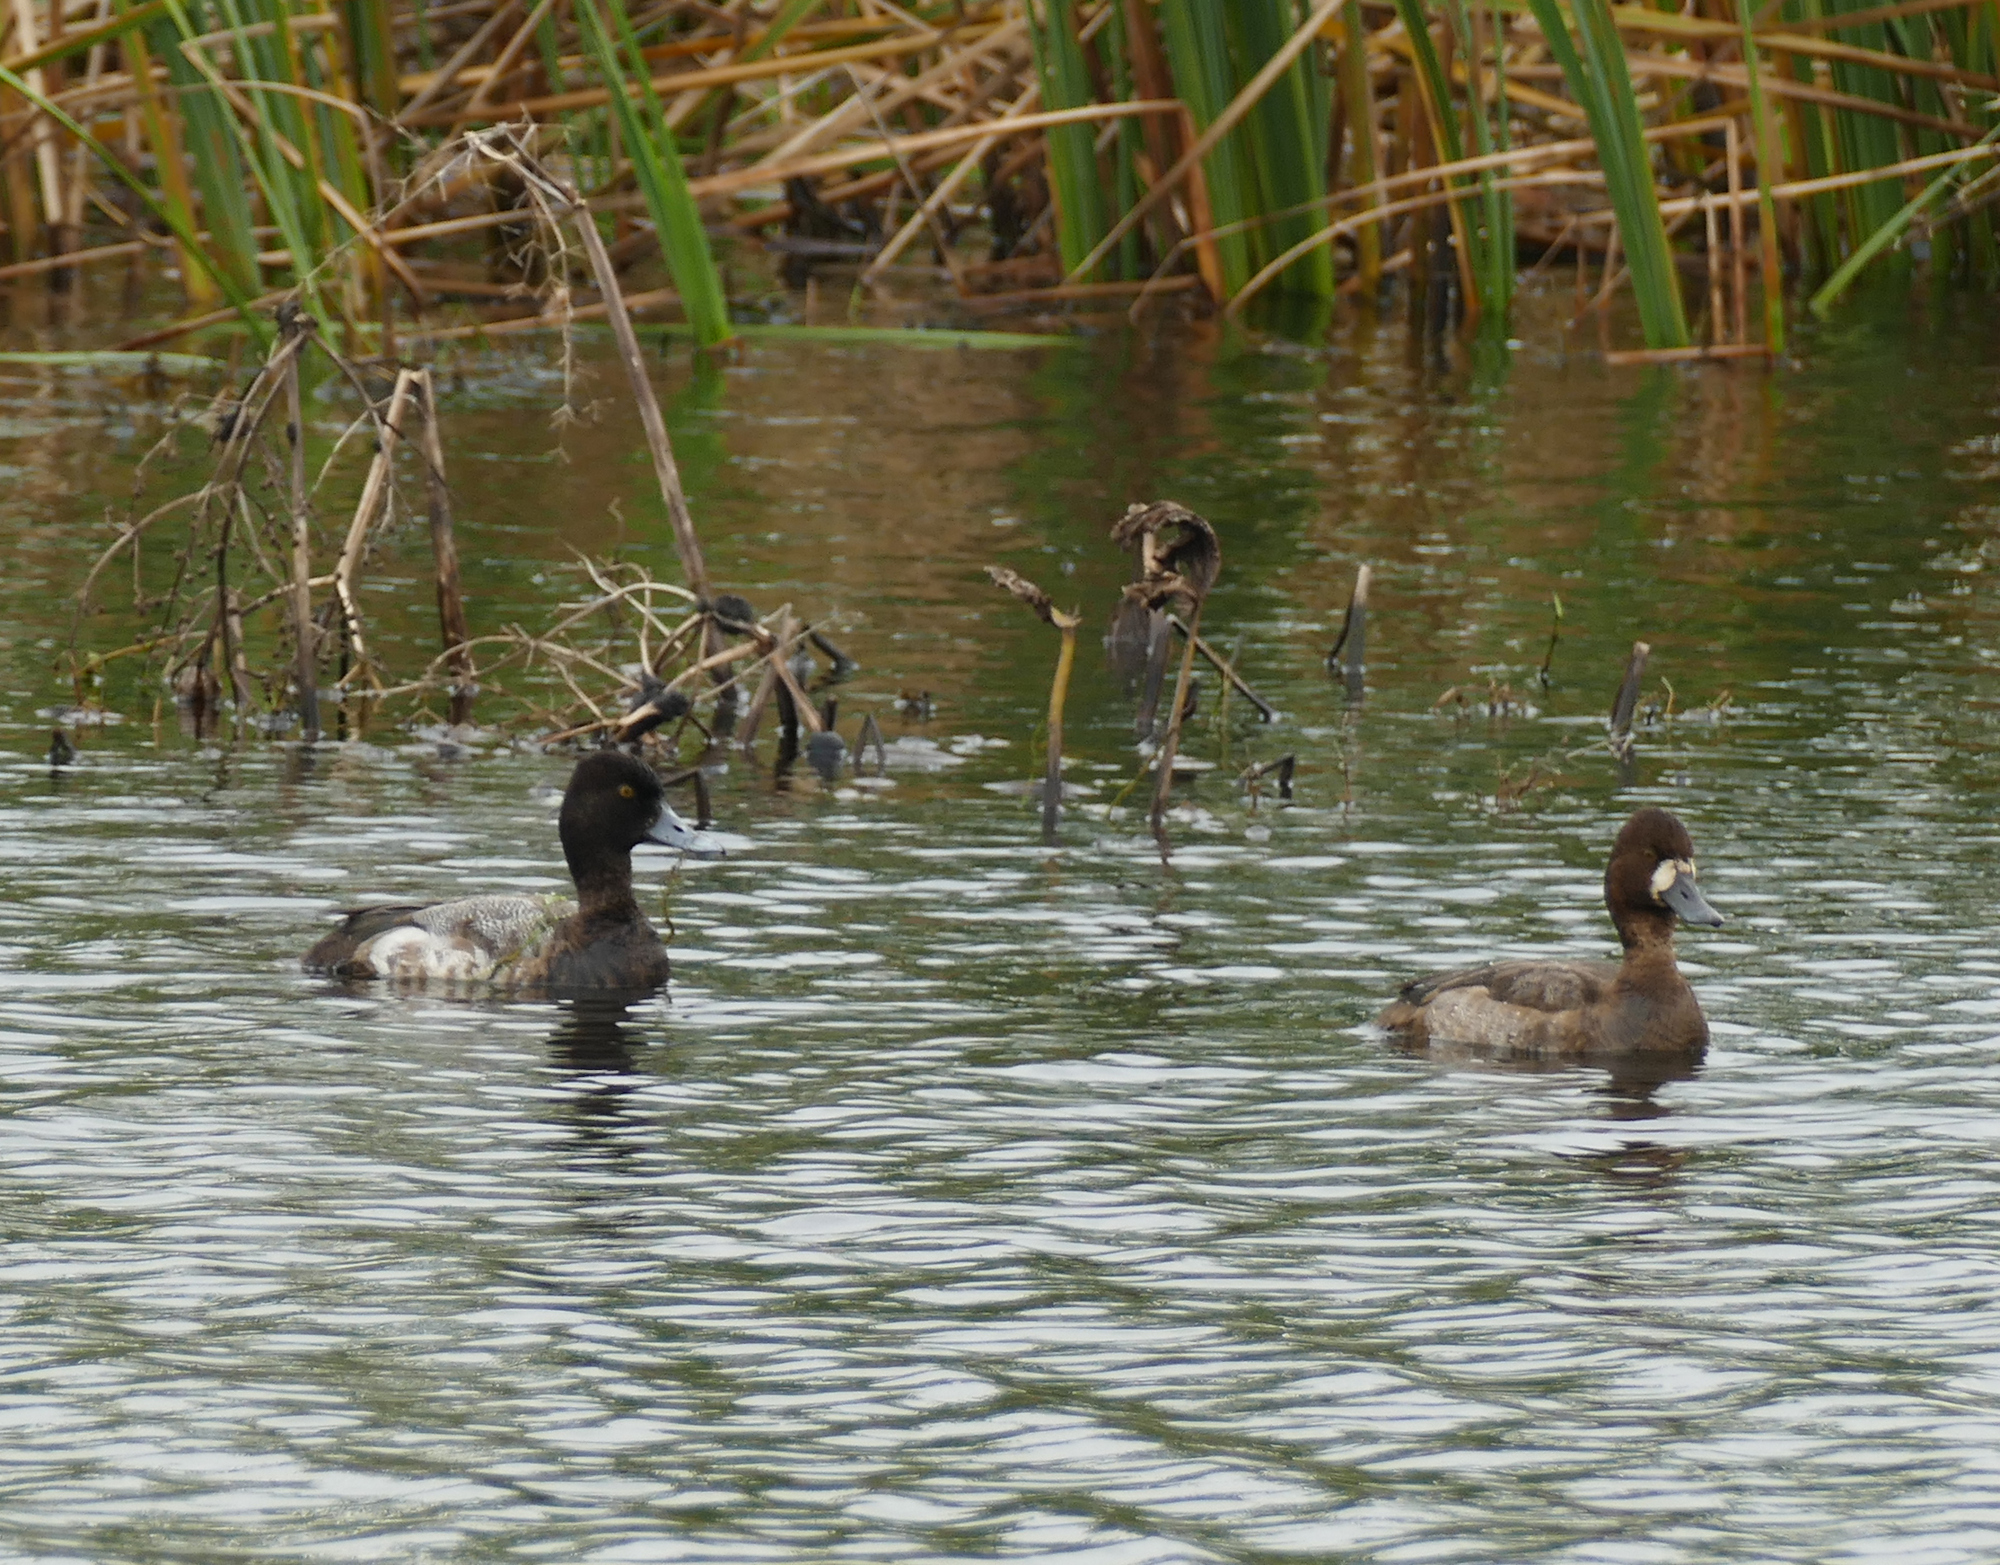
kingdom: Animalia
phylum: Chordata
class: Aves
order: Anseriformes
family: Anatidae
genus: Aythya
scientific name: Aythya affinis
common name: Lesser scaup
